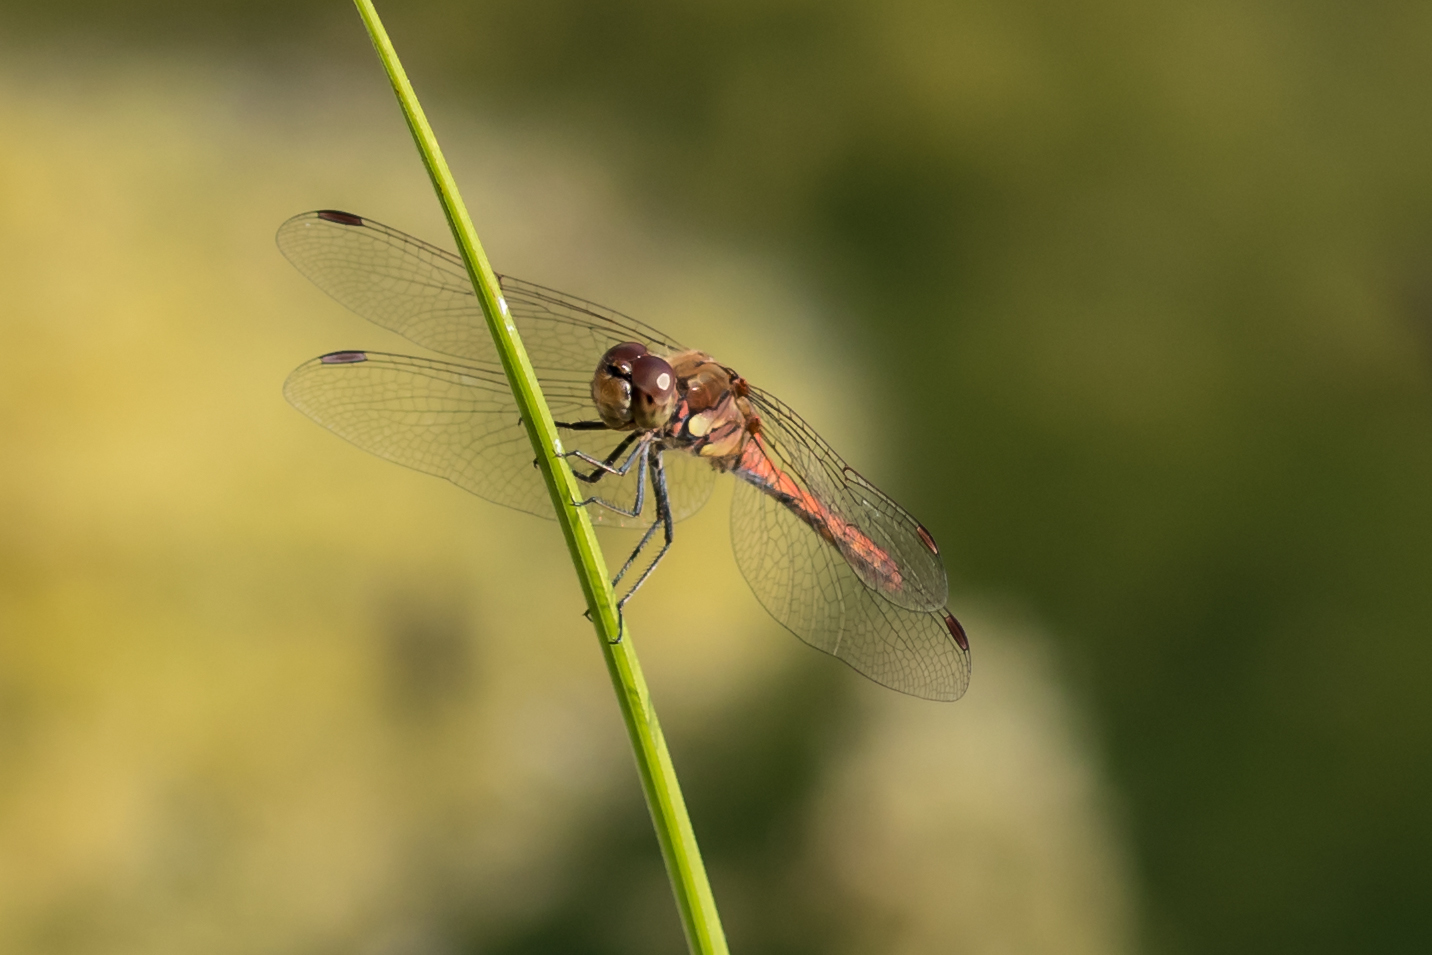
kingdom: Animalia
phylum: Arthropoda
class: Insecta
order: Odonata
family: Libellulidae
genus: Sympetrum
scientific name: Sympetrum striolatum
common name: Common darter
